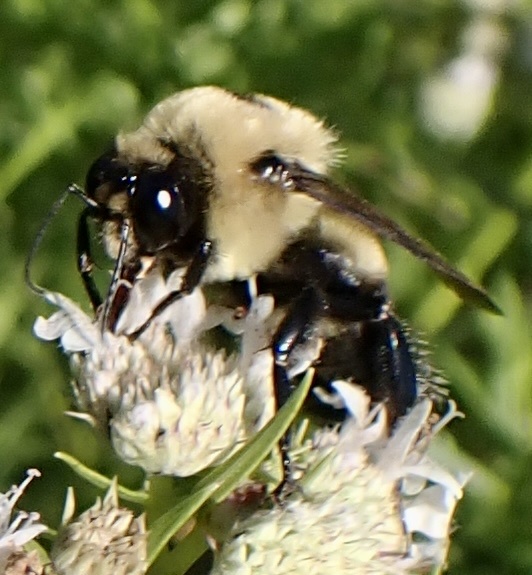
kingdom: Animalia
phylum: Arthropoda
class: Insecta
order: Hymenoptera
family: Apidae
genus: Bombus
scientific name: Bombus griseocollis
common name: Brown-belted bumble bee
